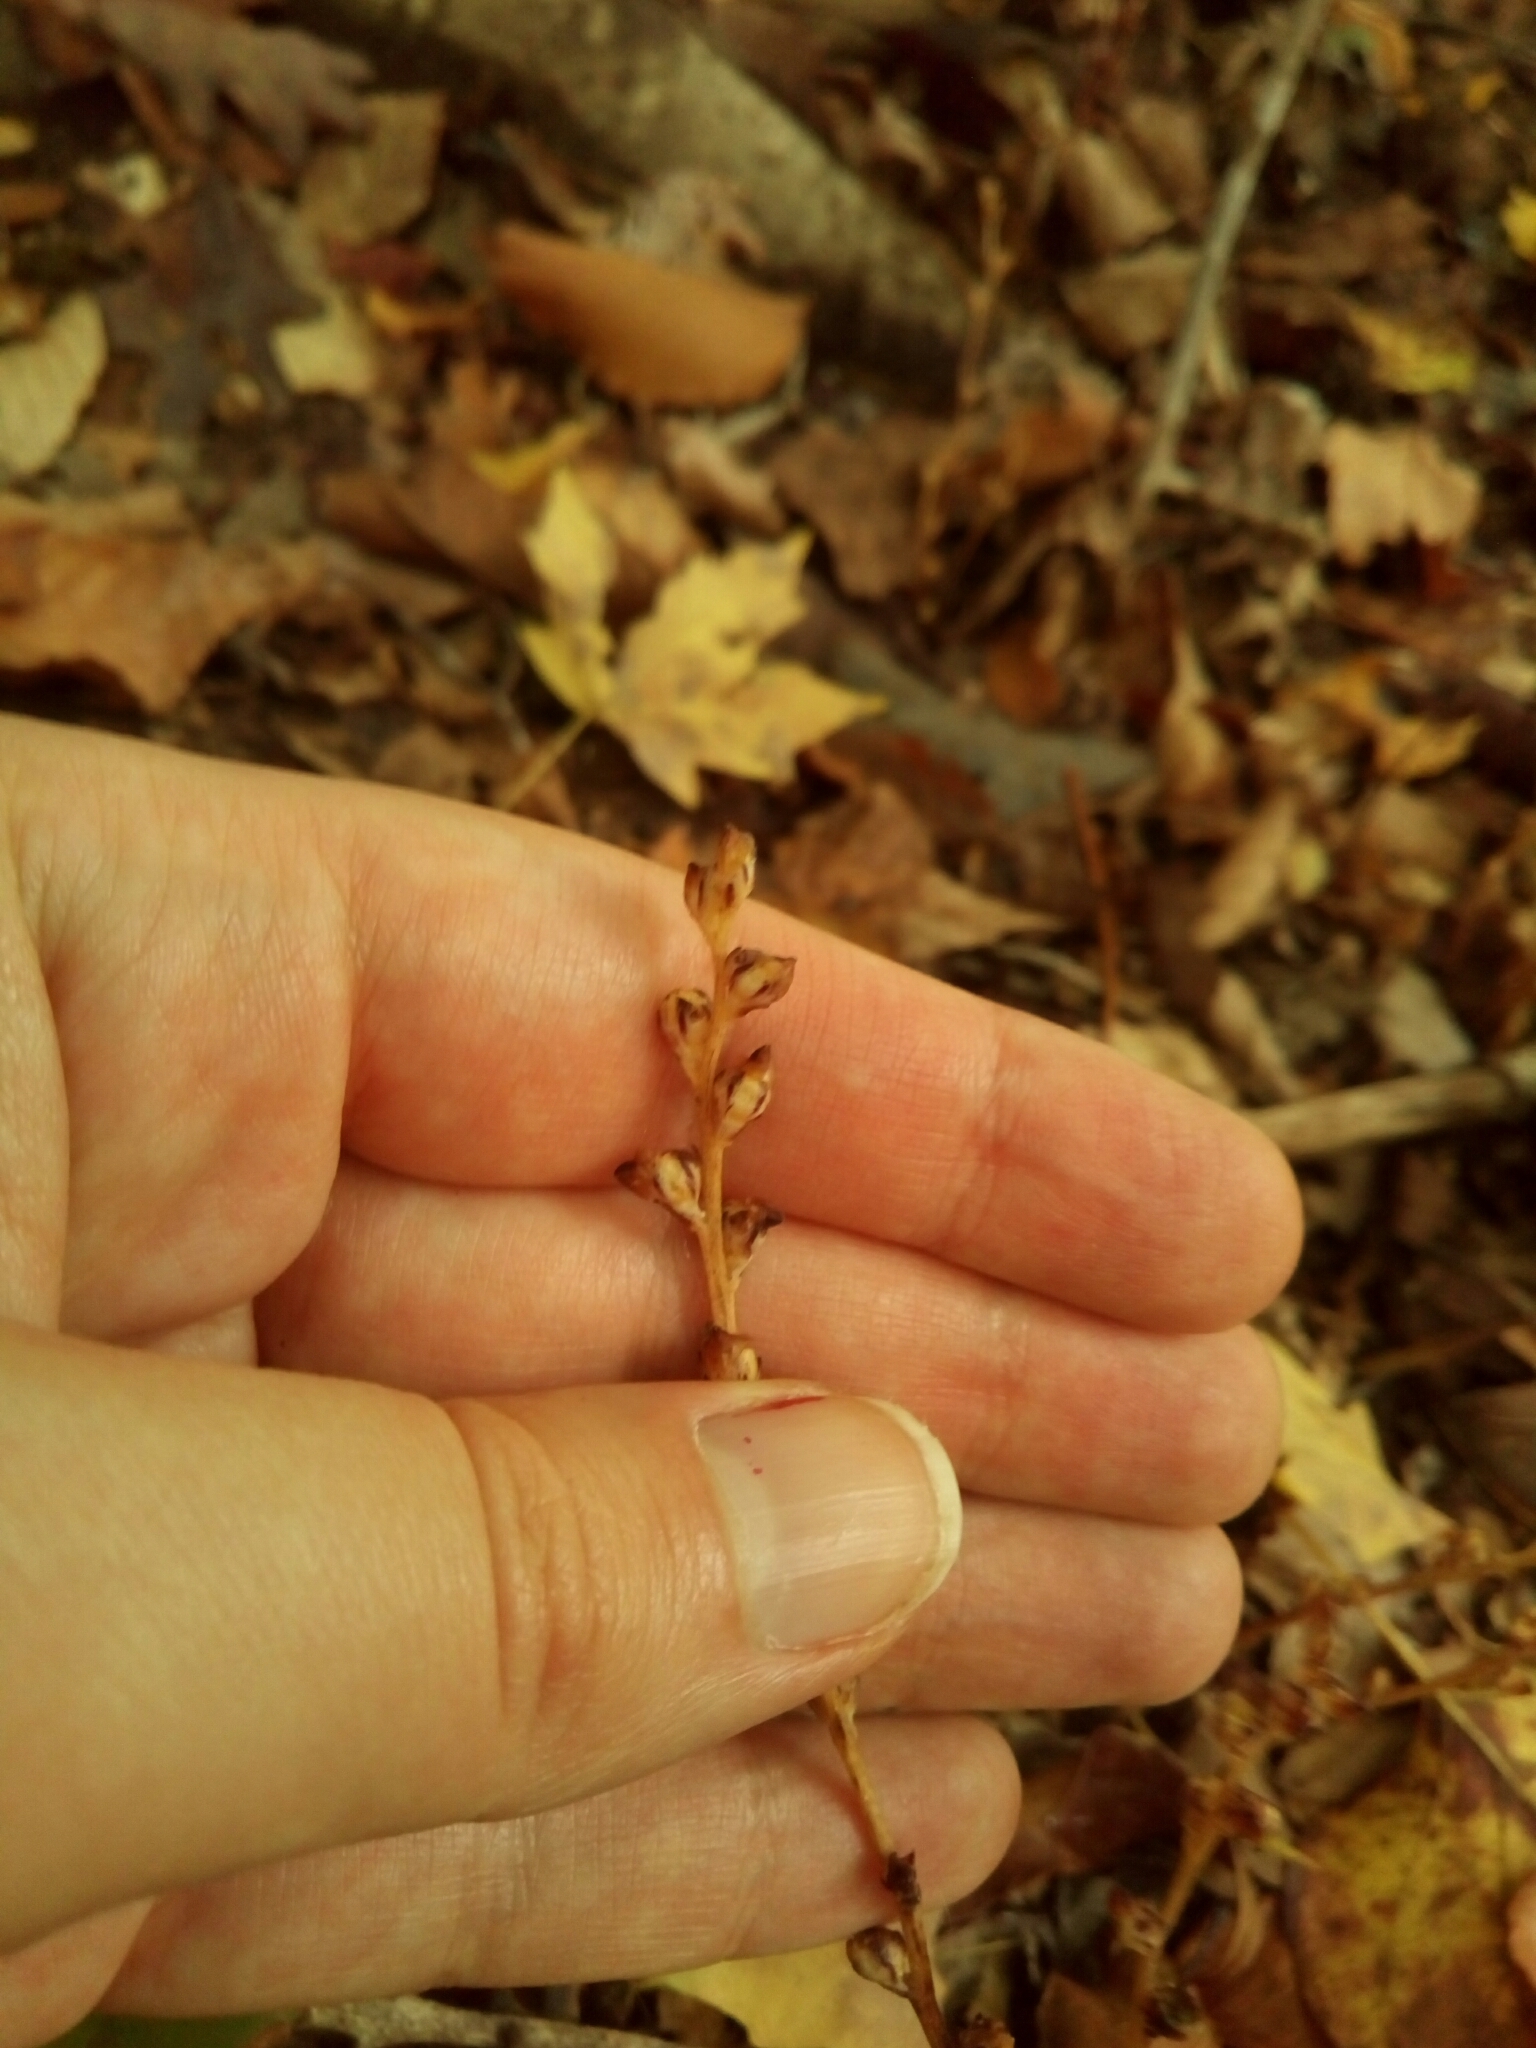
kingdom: Plantae
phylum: Tracheophyta
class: Magnoliopsida
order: Lamiales
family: Orobanchaceae
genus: Epifagus
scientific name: Epifagus virginiana
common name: Beechdrops
